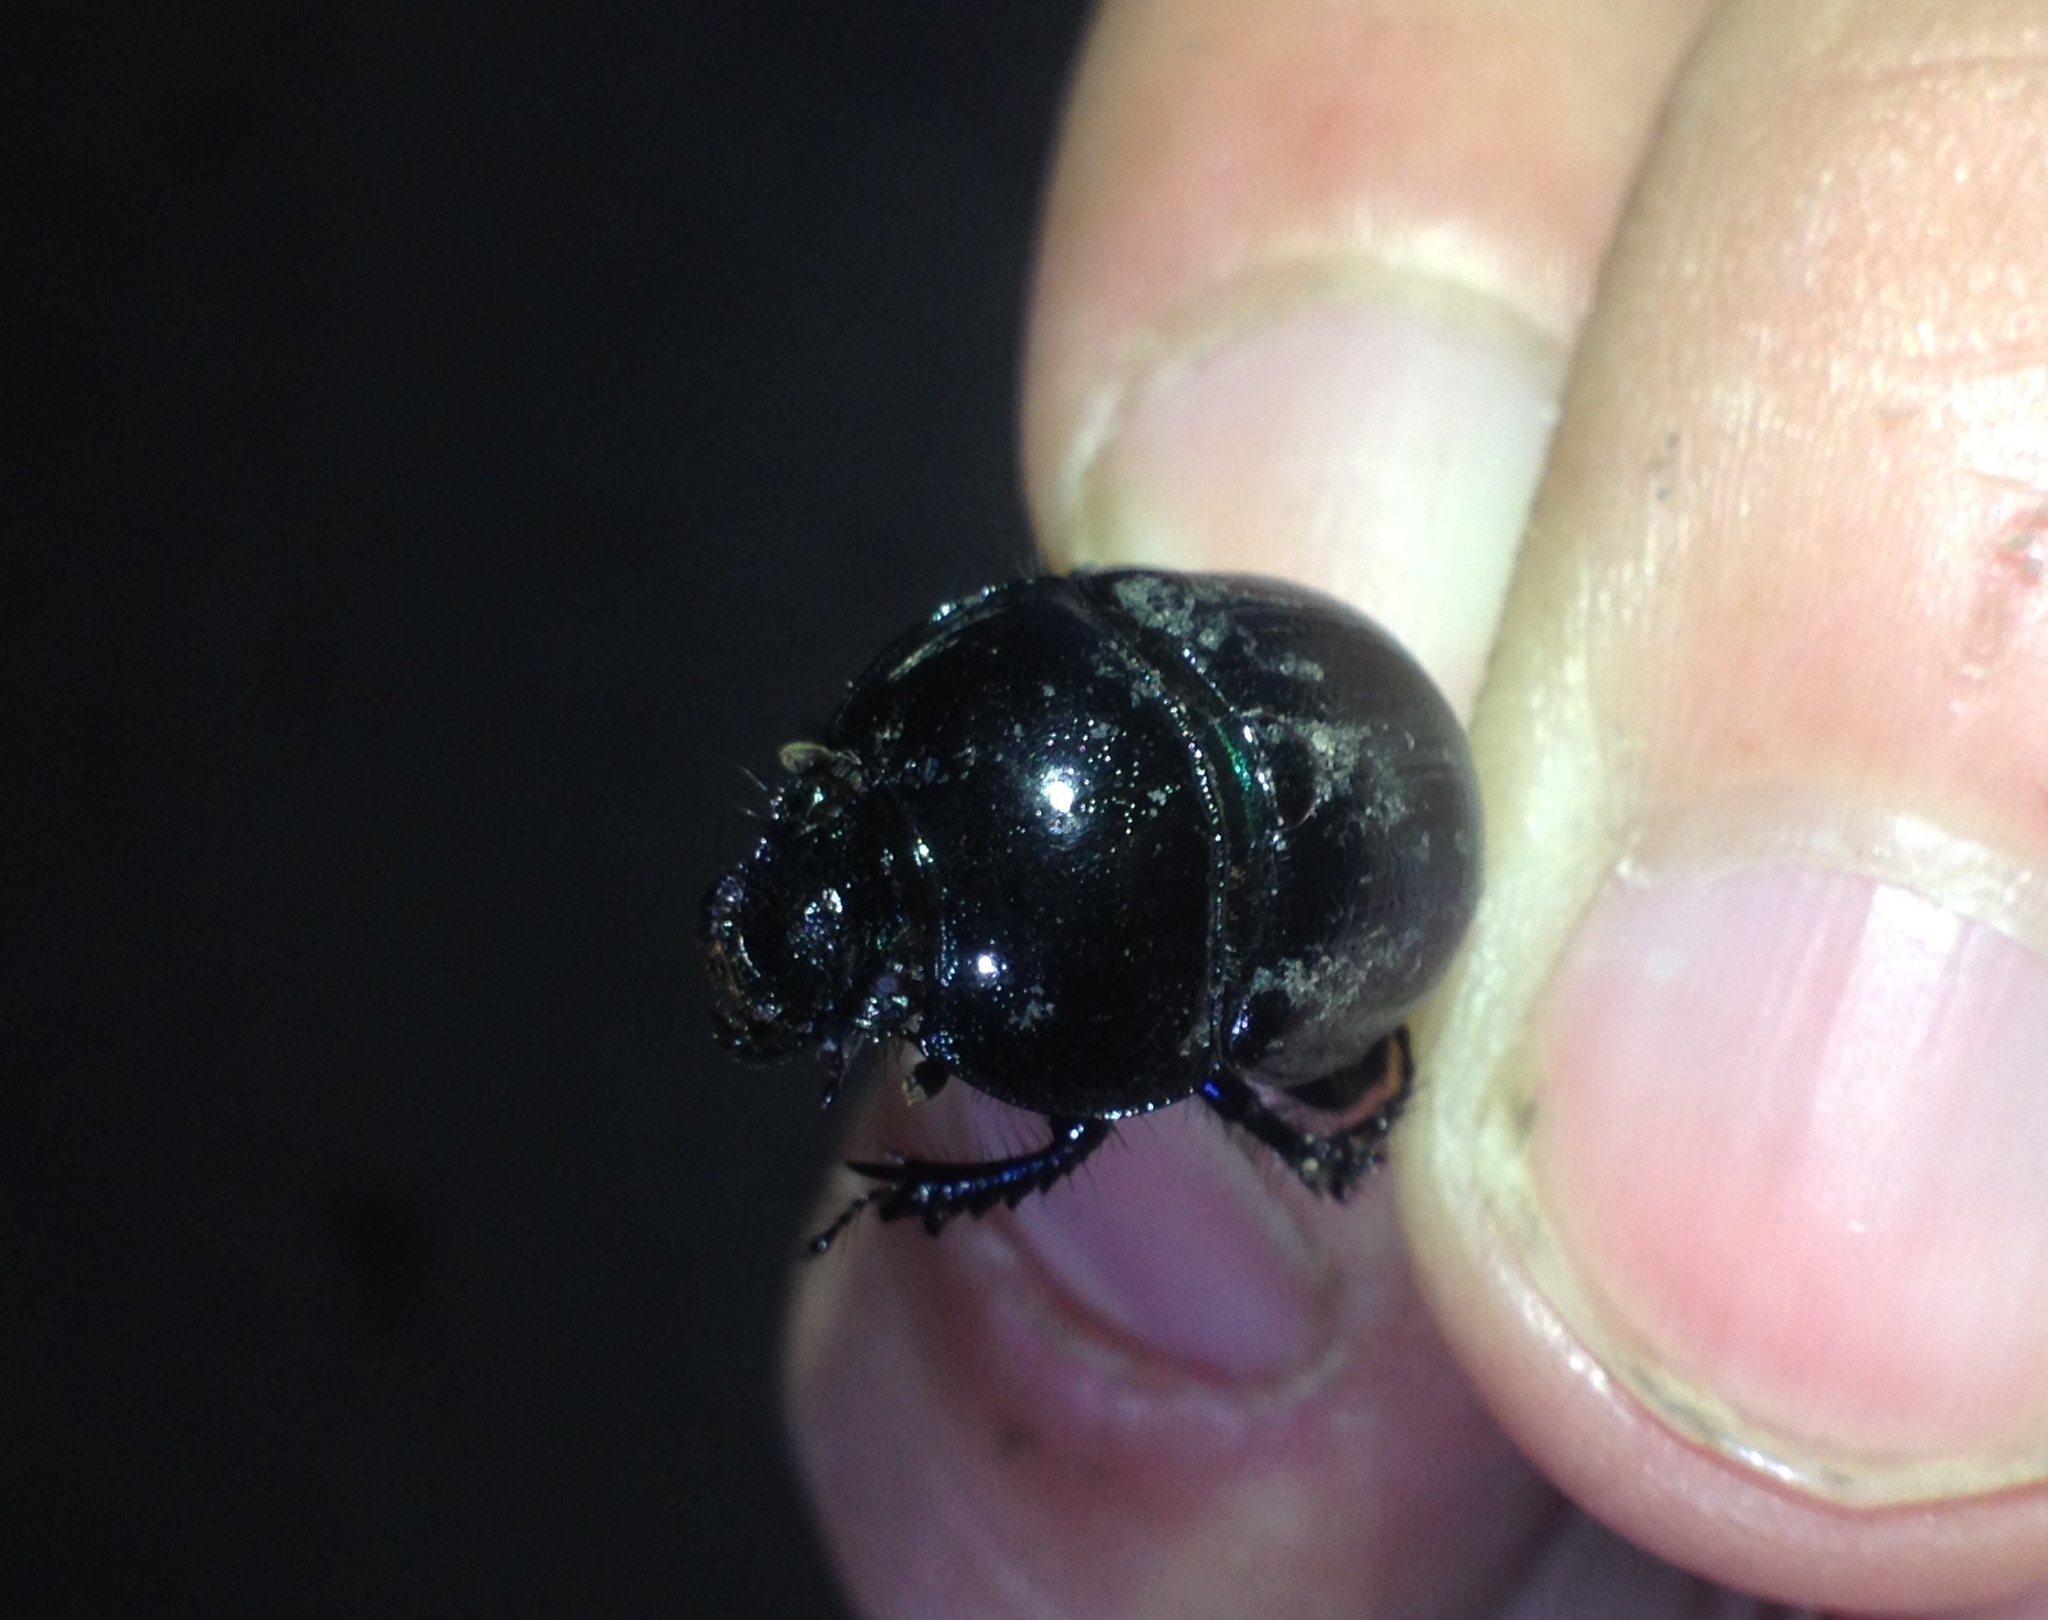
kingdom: Animalia
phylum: Arthropoda
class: Insecta
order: Coleoptera
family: Geotrupidae
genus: Anoplotrupes
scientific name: Anoplotrupes stercorosus
